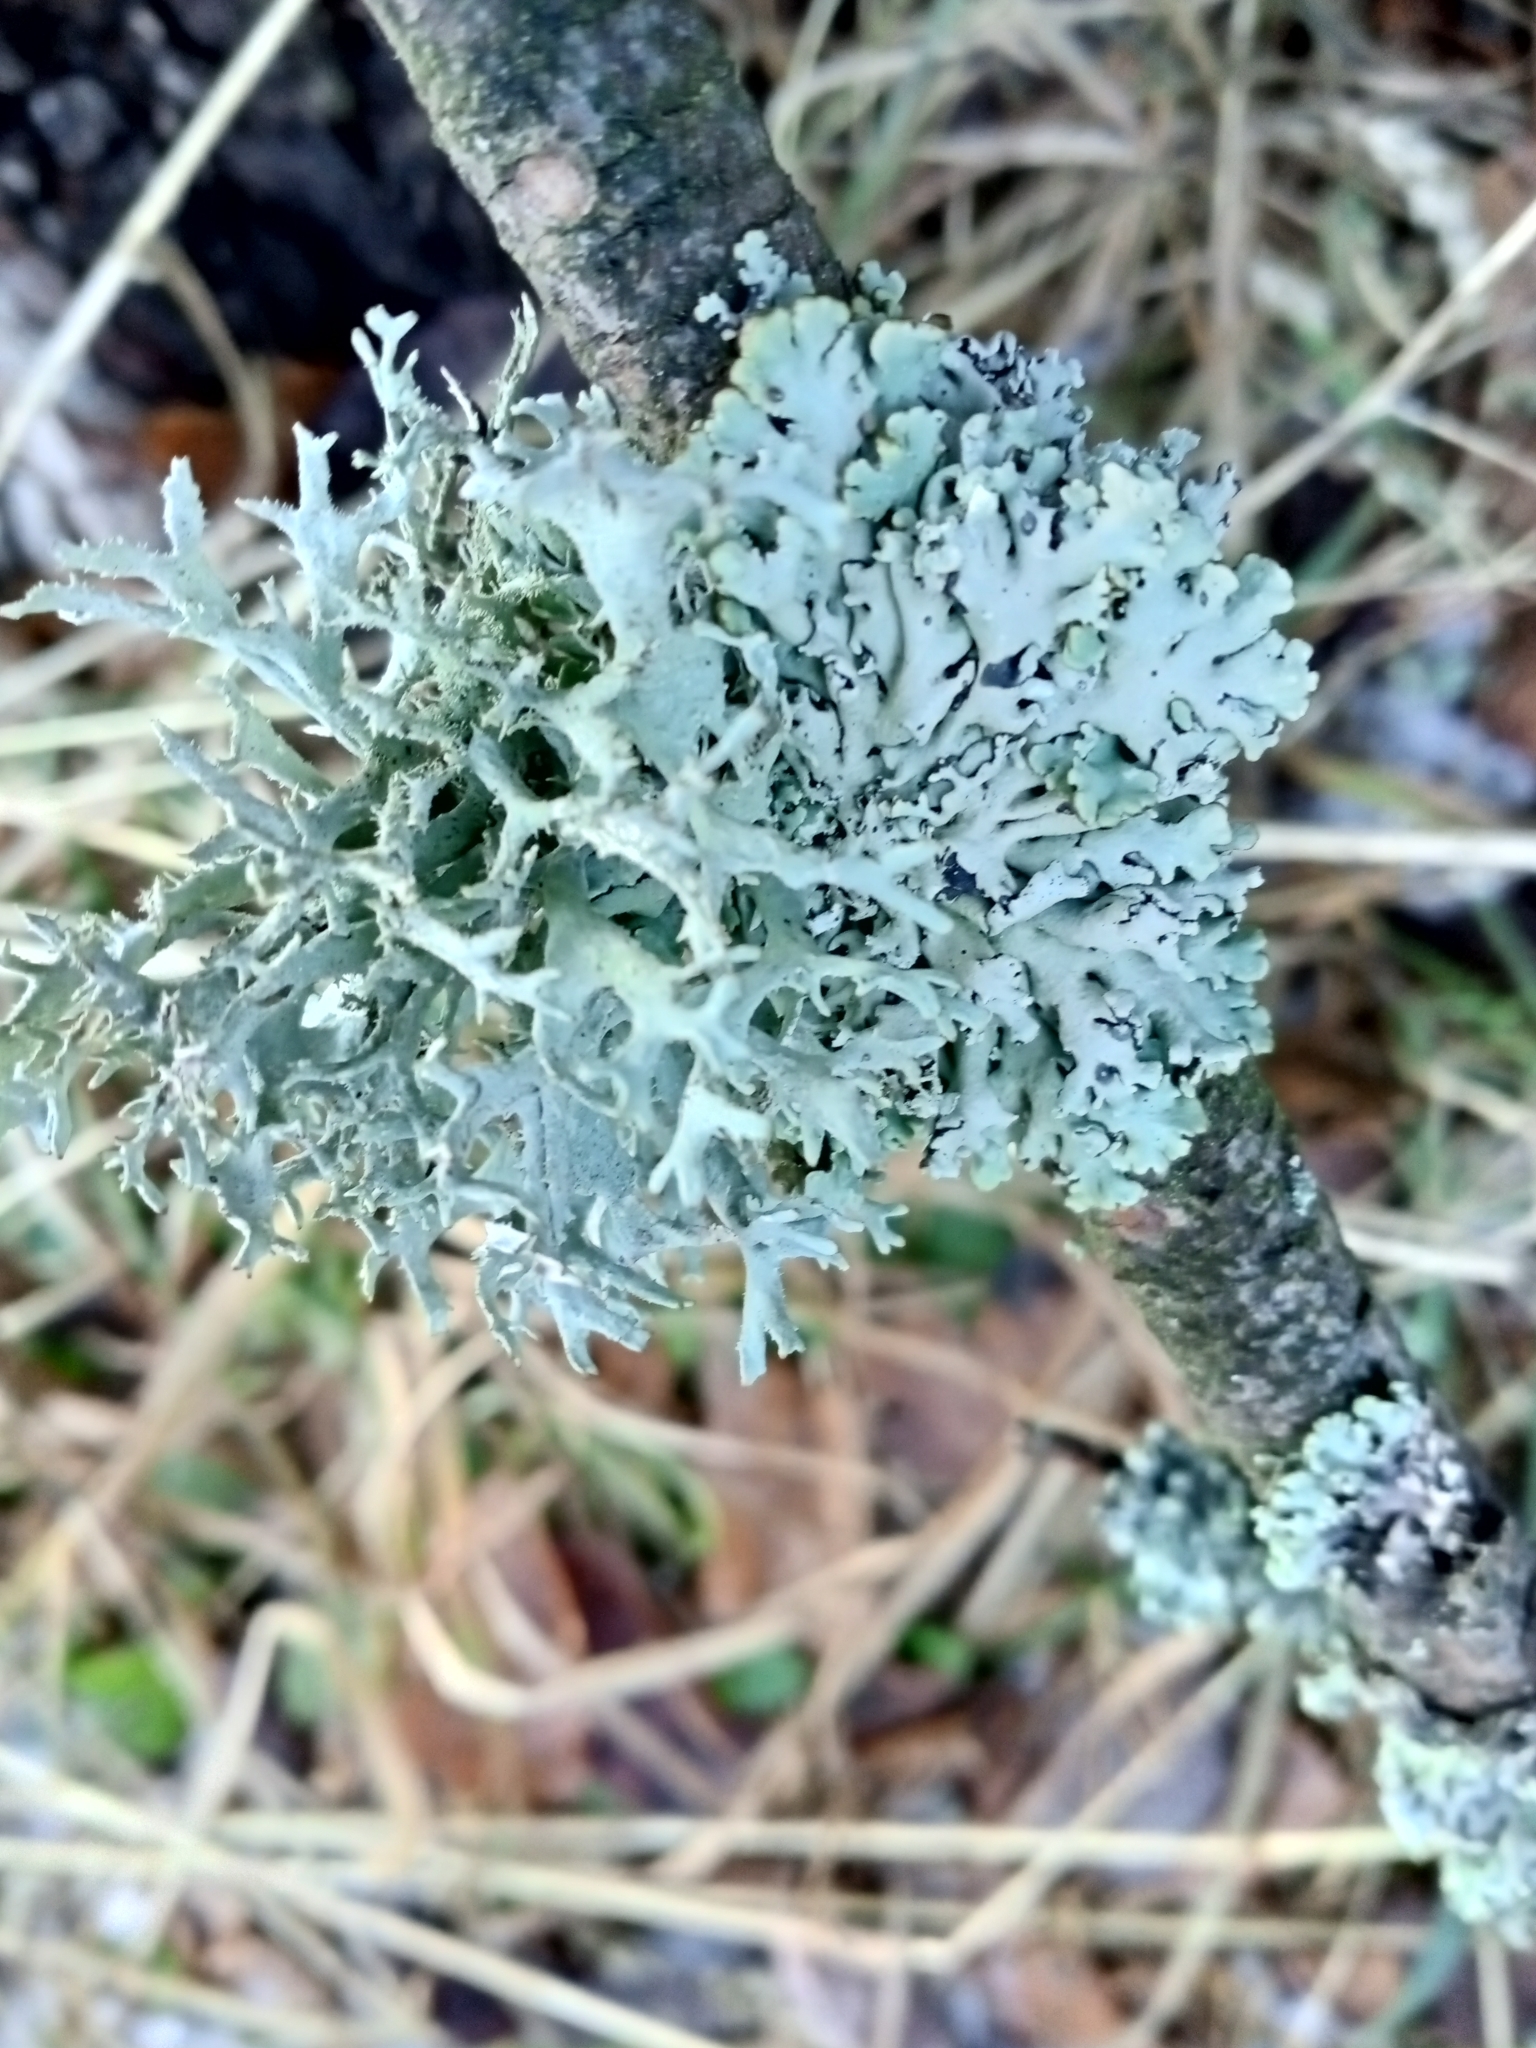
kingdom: Fungi
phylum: Ascomycota
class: Lecanoromycetes
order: Lecanorales
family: Parmeliaceae
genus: Hypogymnia
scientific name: Hypogymnia physodes
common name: Dark crottle
